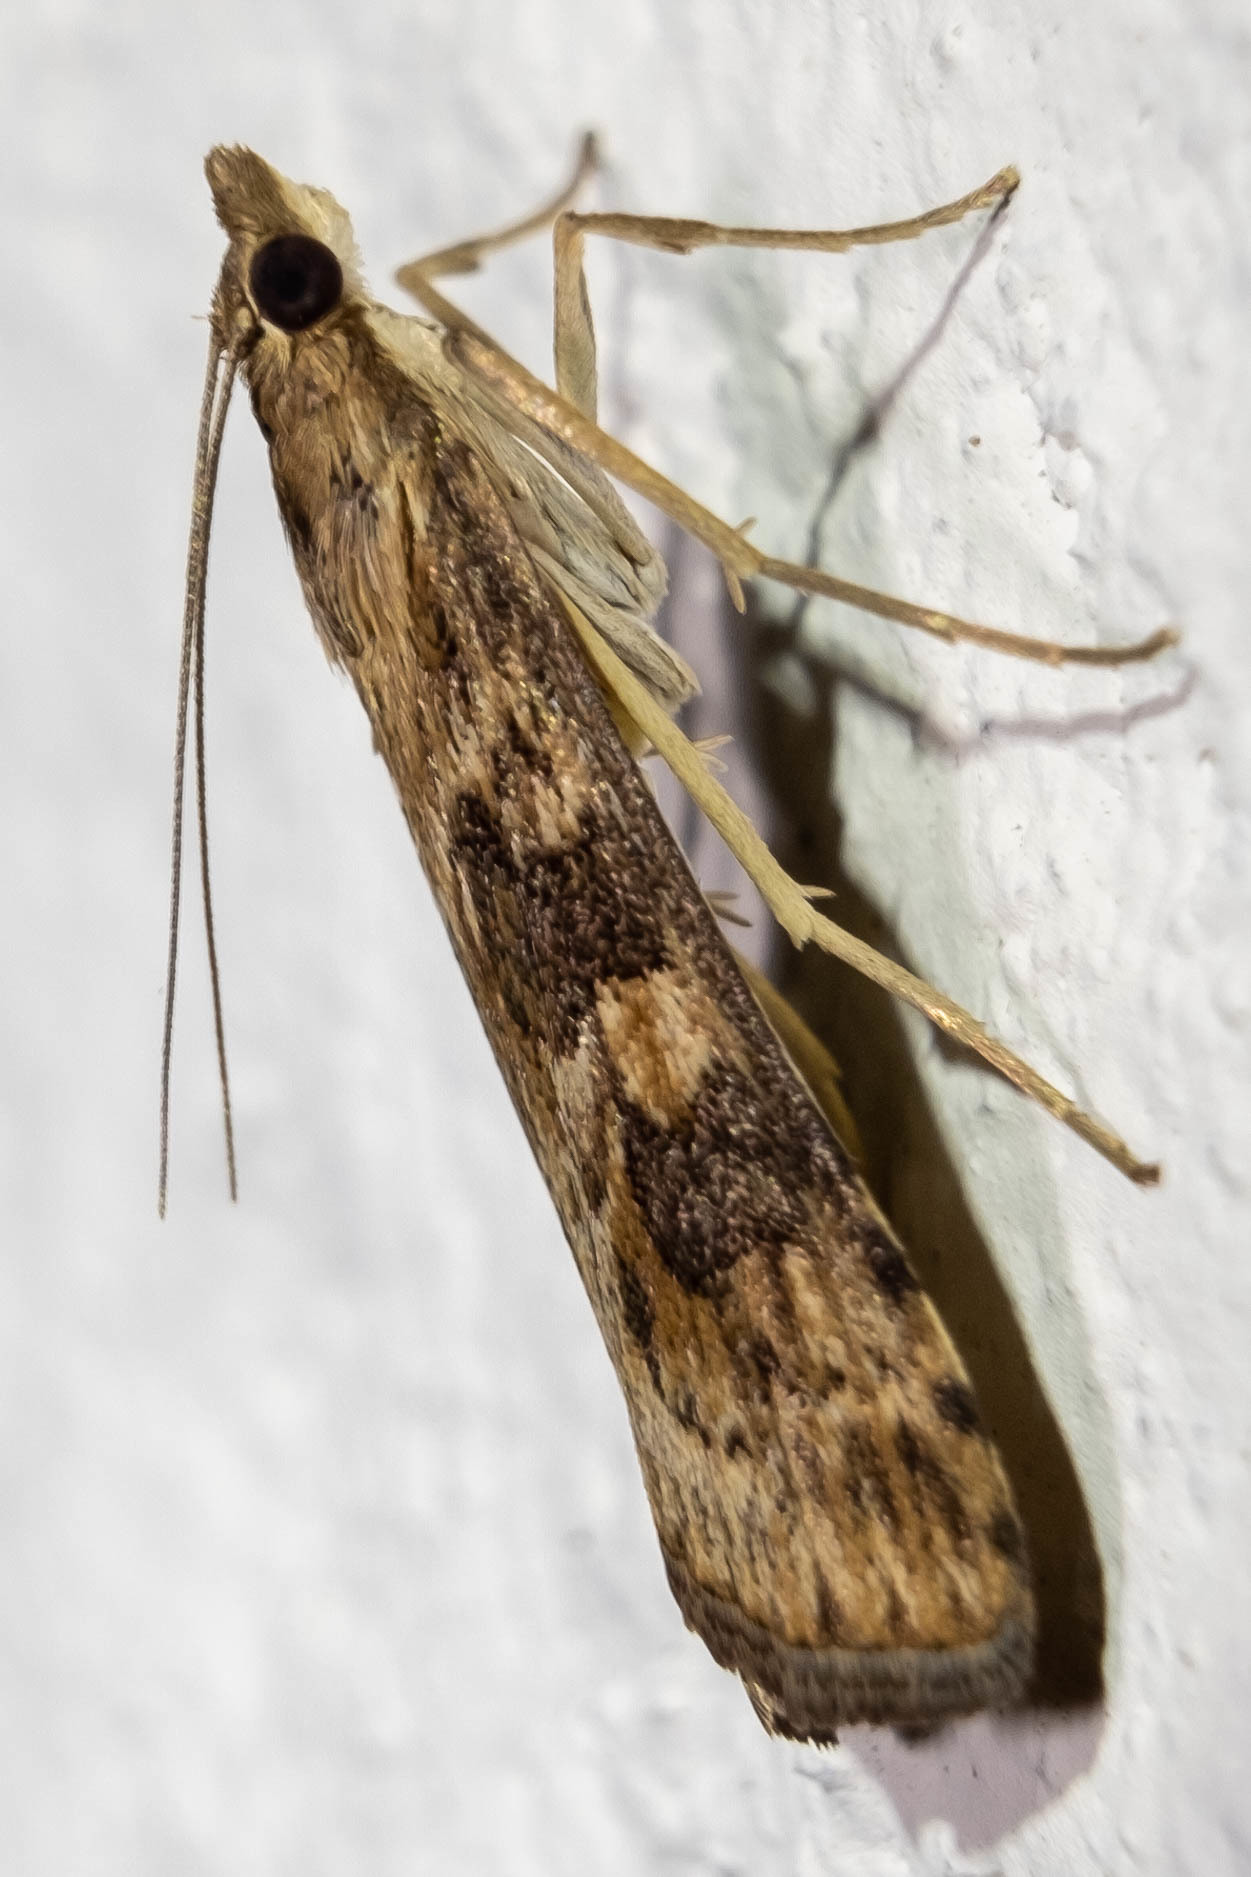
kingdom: Animalia
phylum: Arthropoda
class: Insecta
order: Lepidoptera
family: Crambidae
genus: Nomophila
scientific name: Nomophila nearctica
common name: American rush veneer
